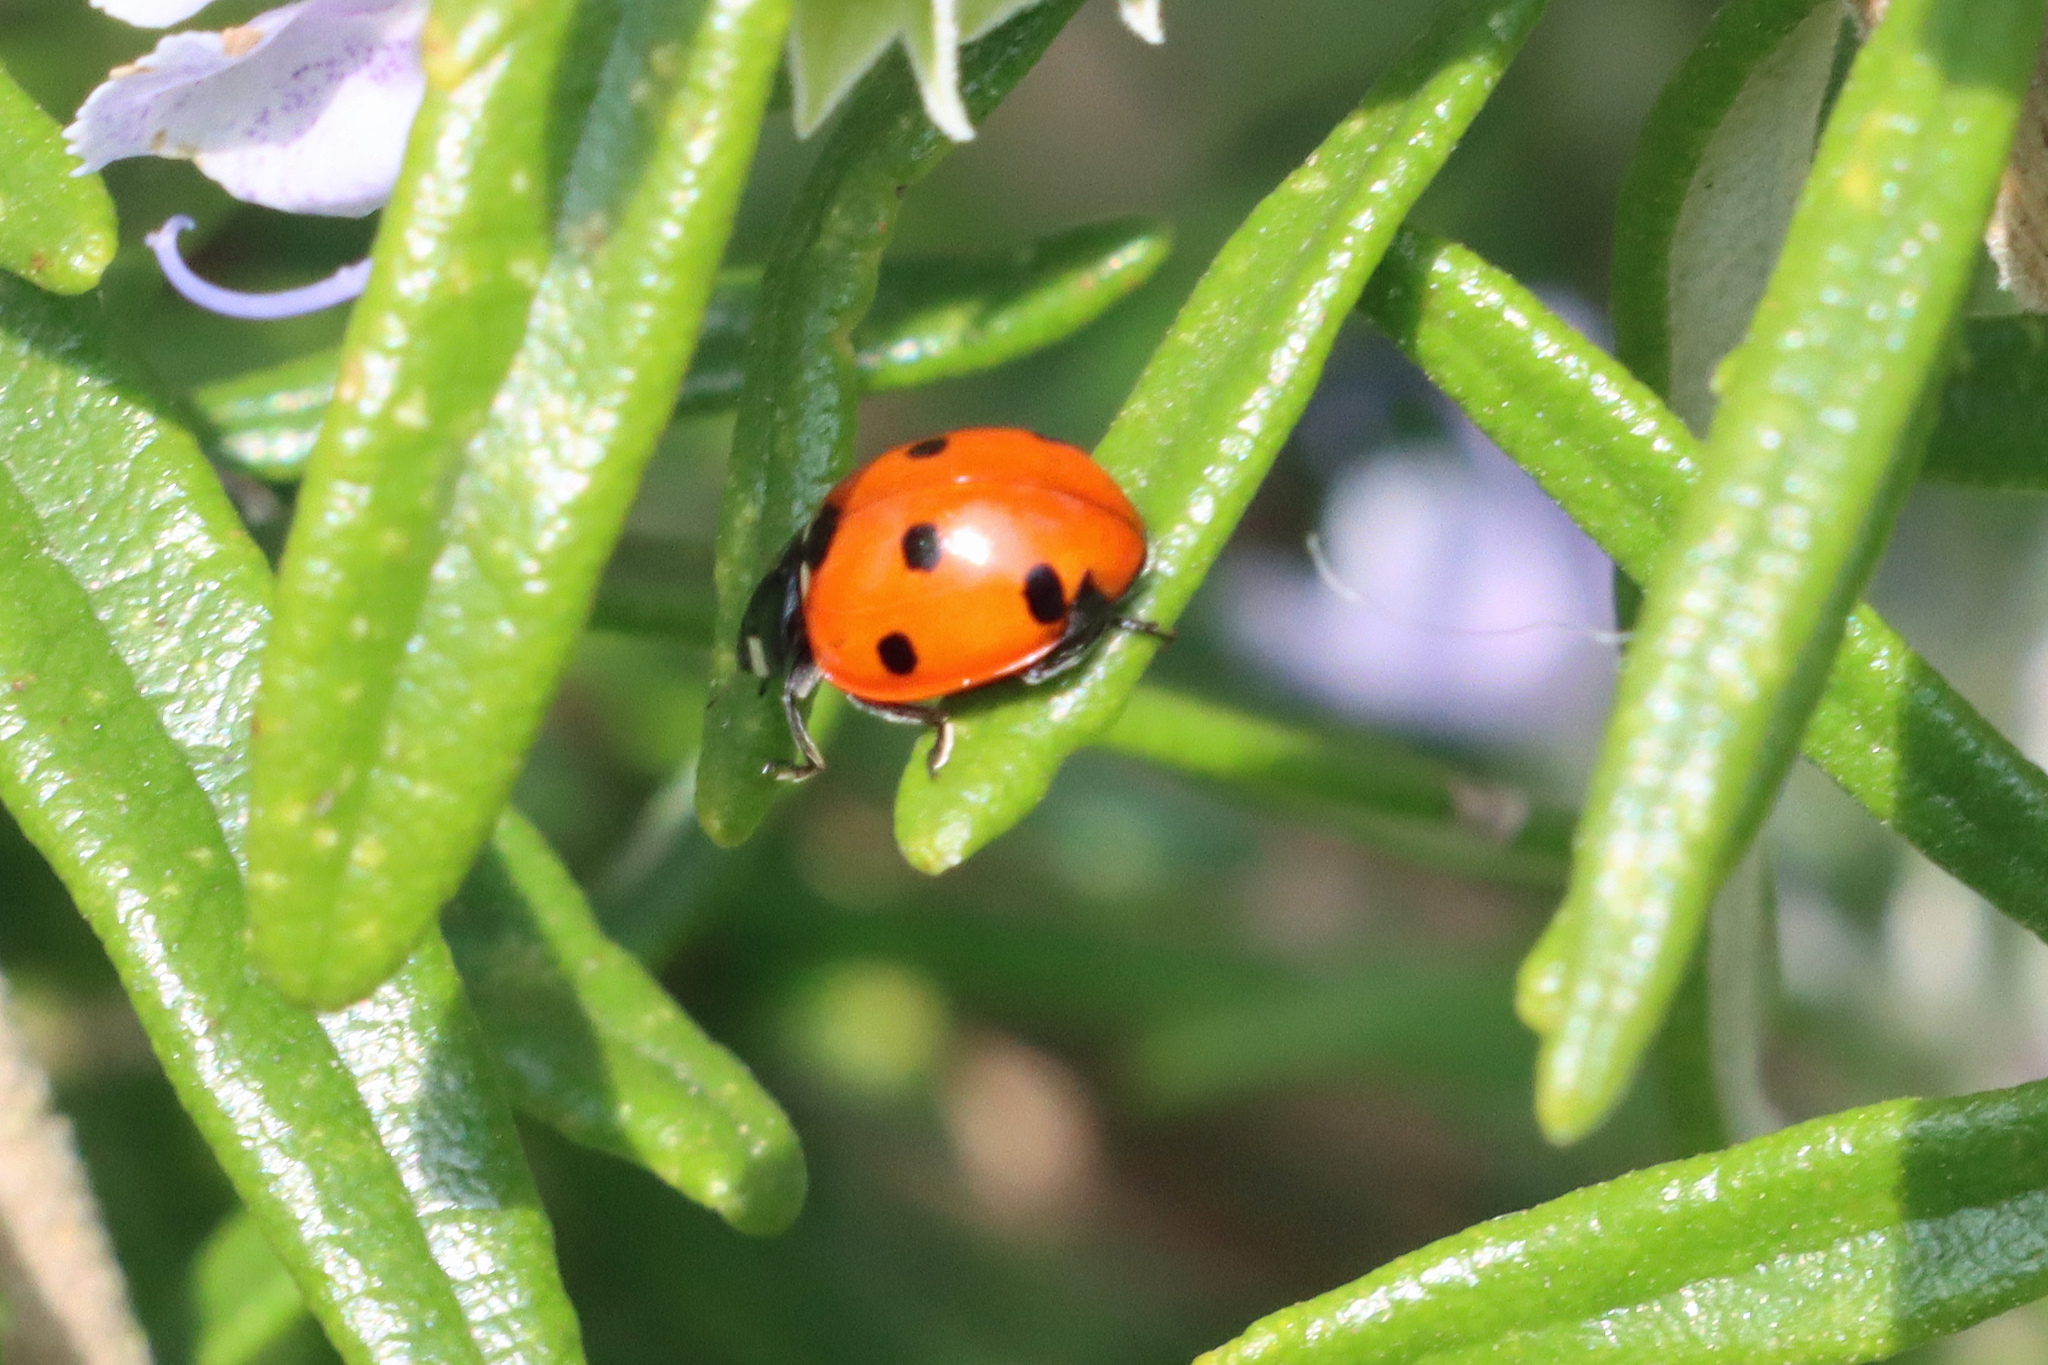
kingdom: Animalia
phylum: Arthropoda
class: Insecta
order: Coleoptera
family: Coccinellidae
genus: Coccinella
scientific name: Coccinella septempunctata
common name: Sevenspotted lady beetle
